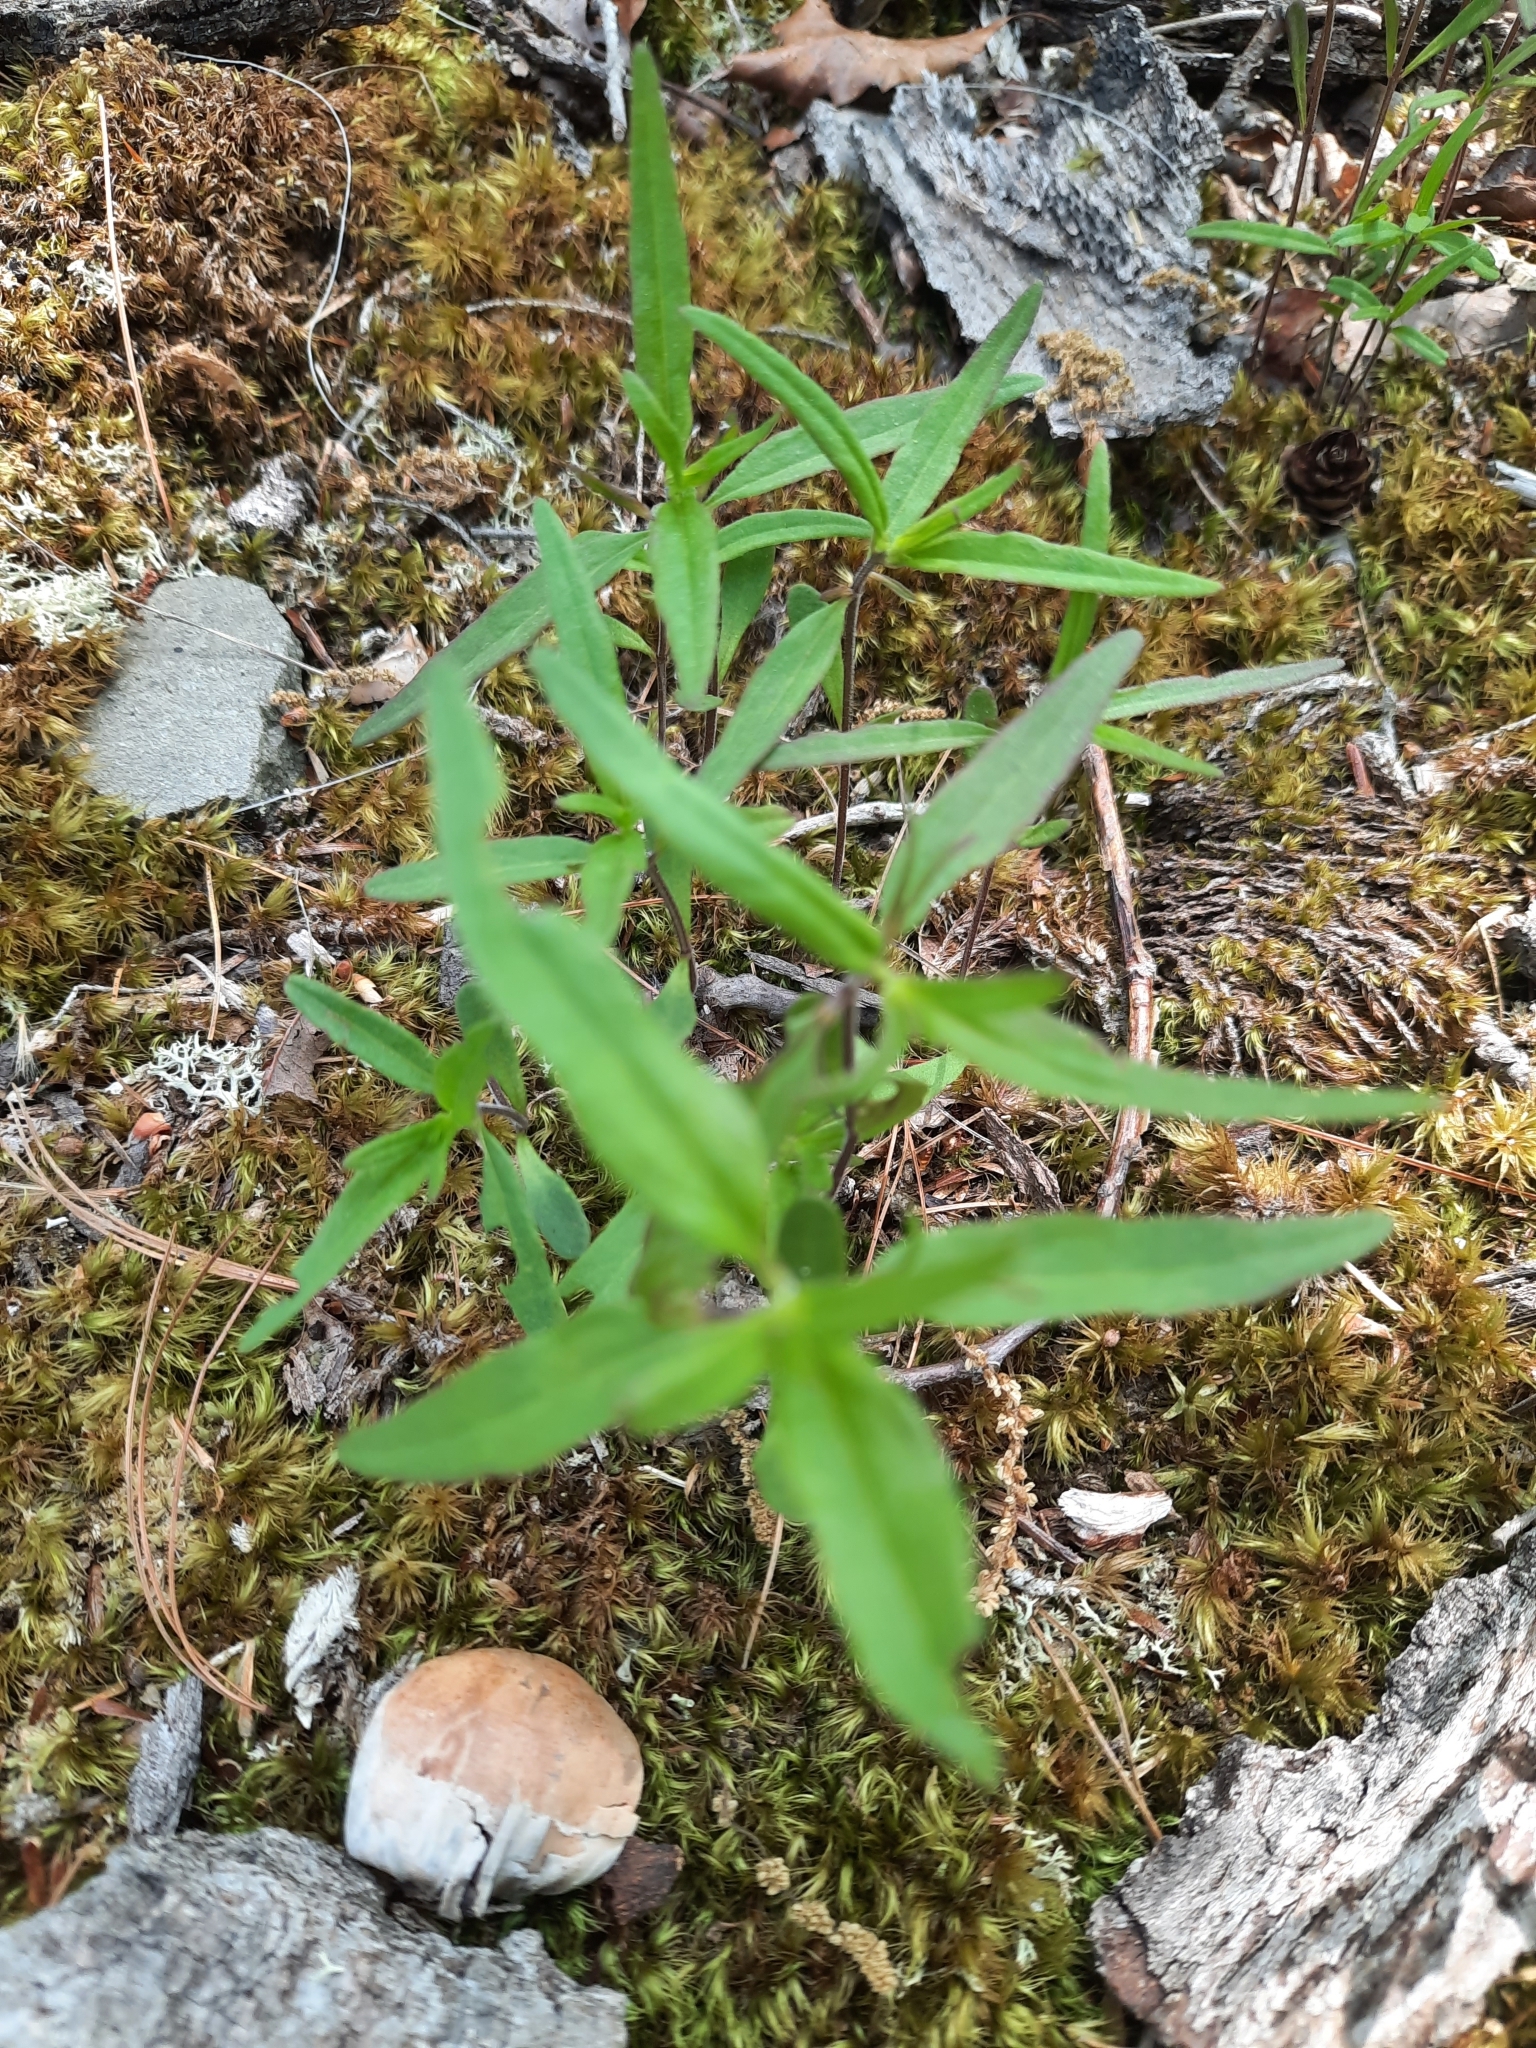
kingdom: Plantae
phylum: Tracheophyta
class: Magnoliopsida
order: Lamiales
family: Orobanchaceae
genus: Melampyrum
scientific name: Melampyrum lineare
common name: American cow-wheat
